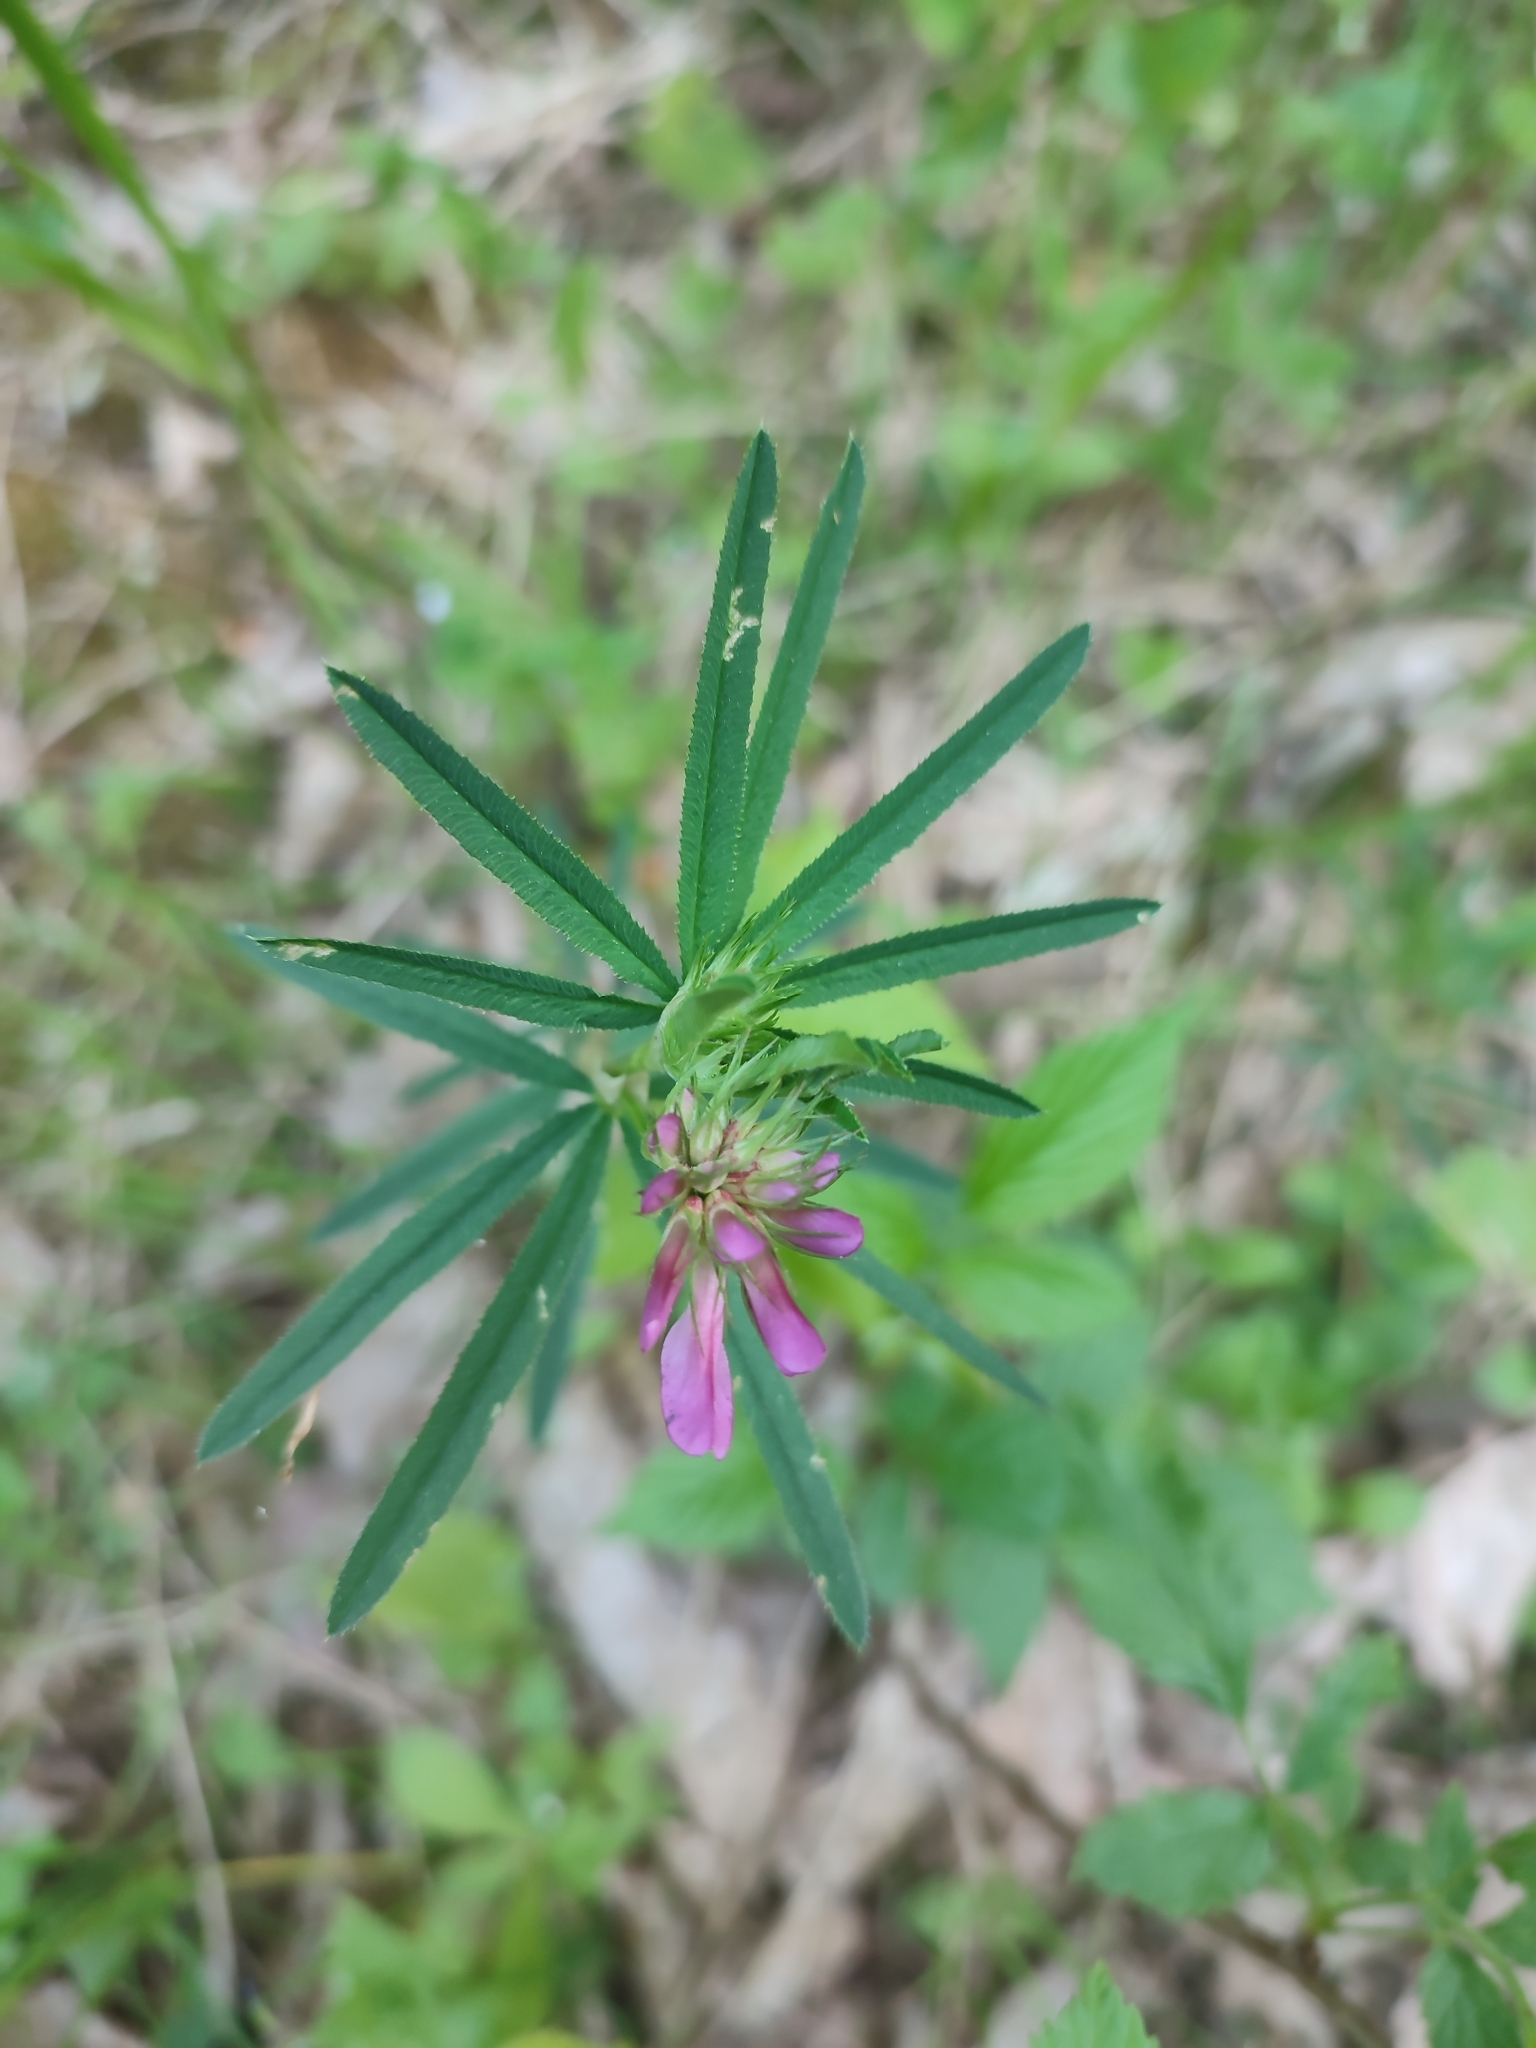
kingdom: Plantae
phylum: Tracheophyta
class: Magnoliopsida
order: Fabales
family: Fabaceae
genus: Trifolium
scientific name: Trifolium lupinaster
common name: Lupine clover
